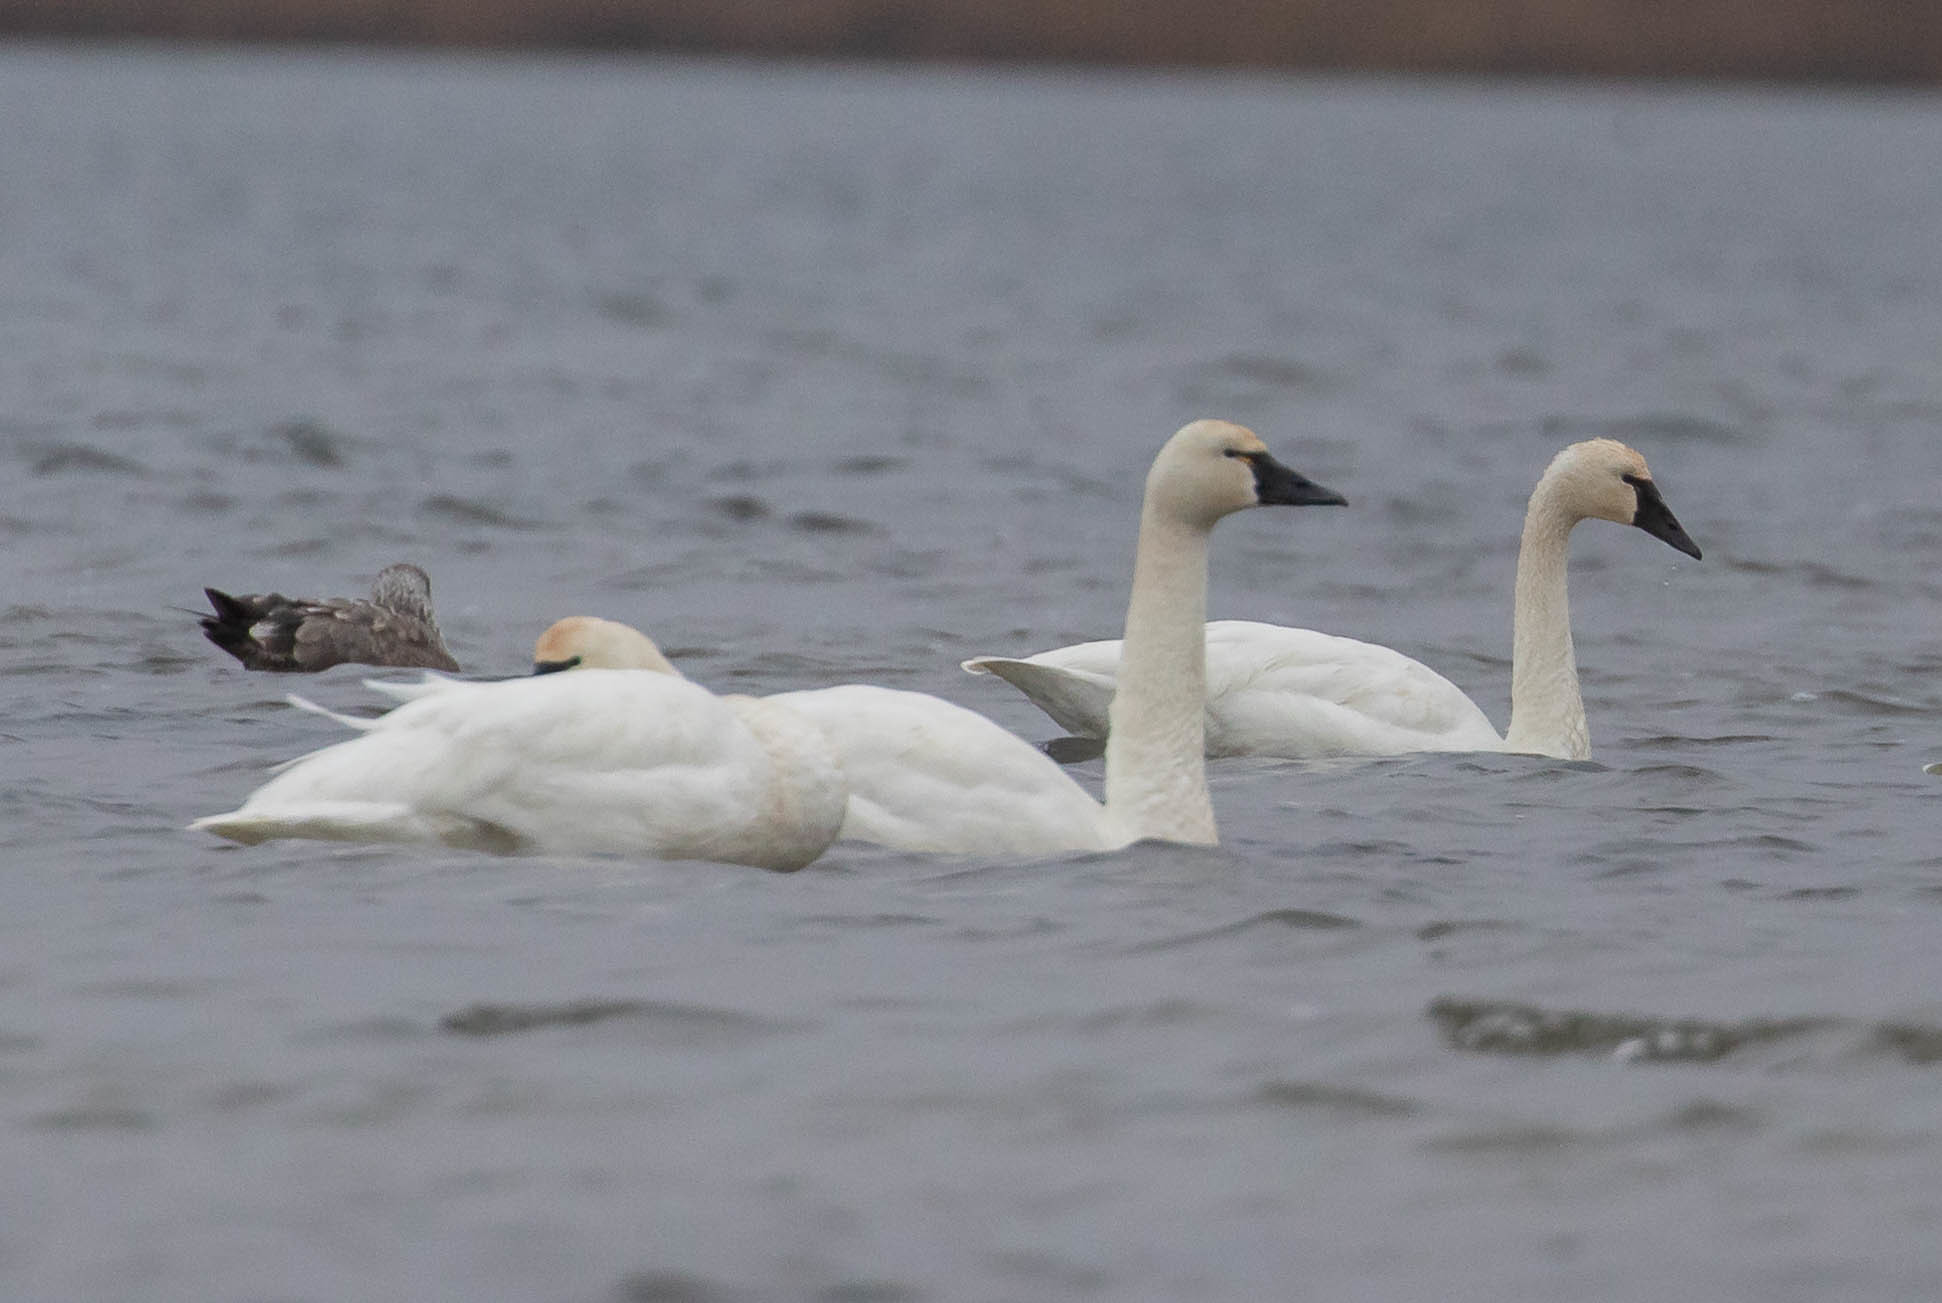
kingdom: Animalia
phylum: Chordata
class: Aves
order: Anseriformes
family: Anatidae
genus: Cygnus
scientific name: Cygnus columbianus
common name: Tundra swan
